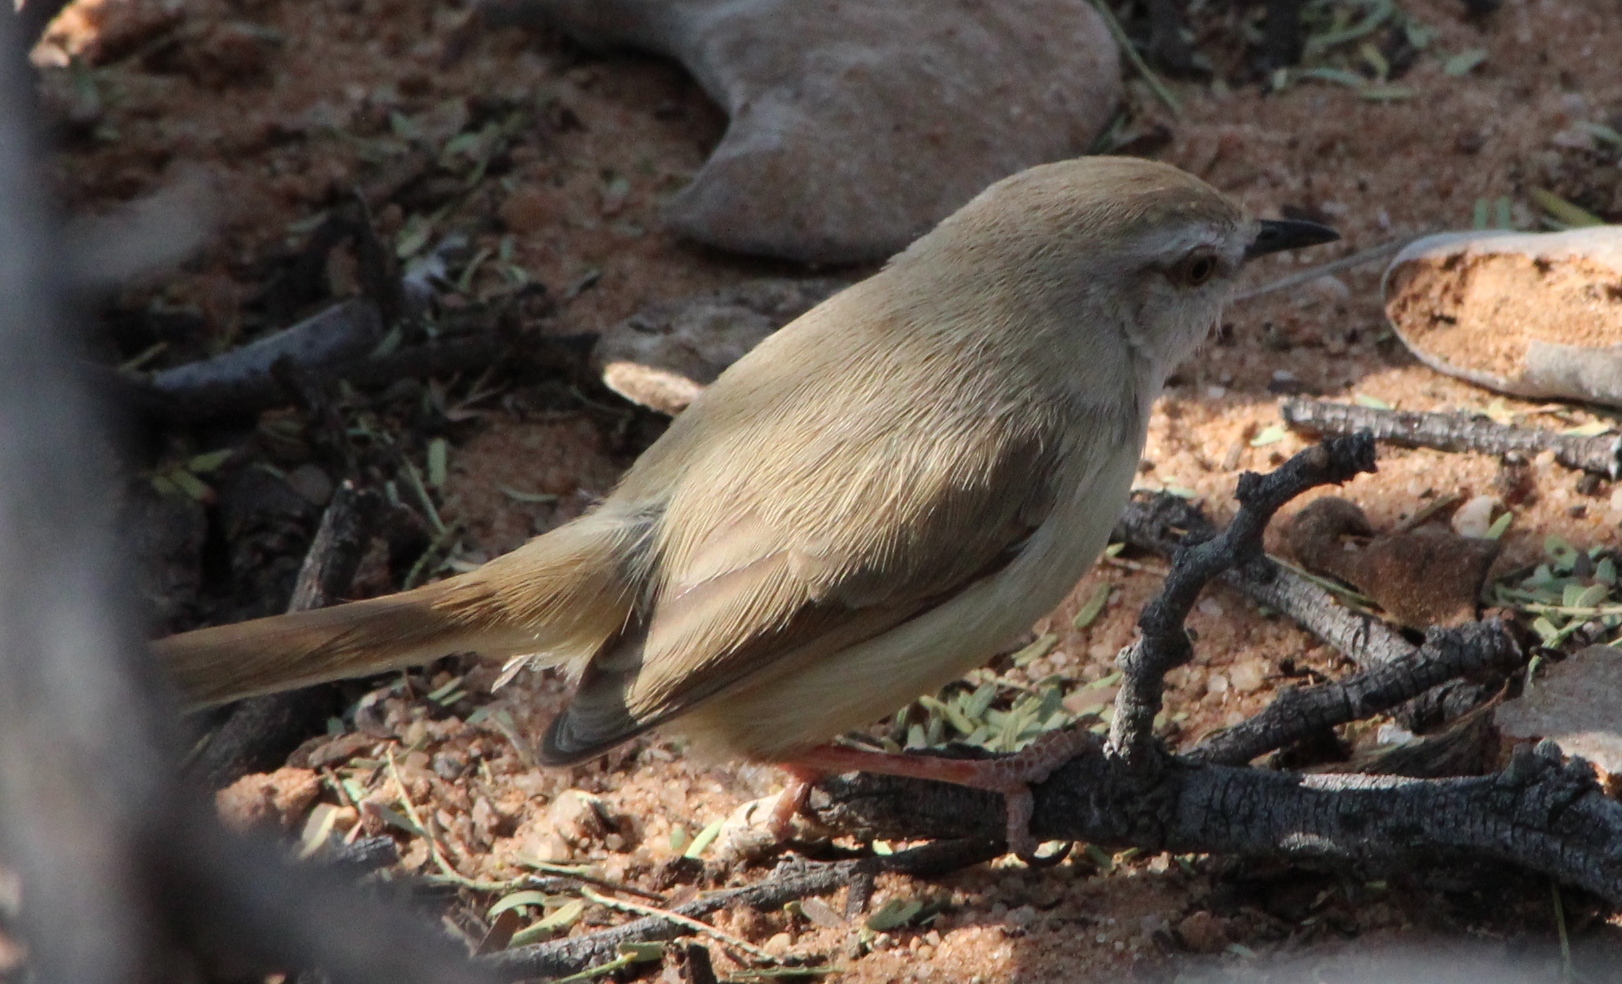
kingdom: Animalia
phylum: Chordata
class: Aves
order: Passeriformes
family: Cisticolidae
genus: Prinia
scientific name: Prinia flavicans
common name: Black-chested prinia
